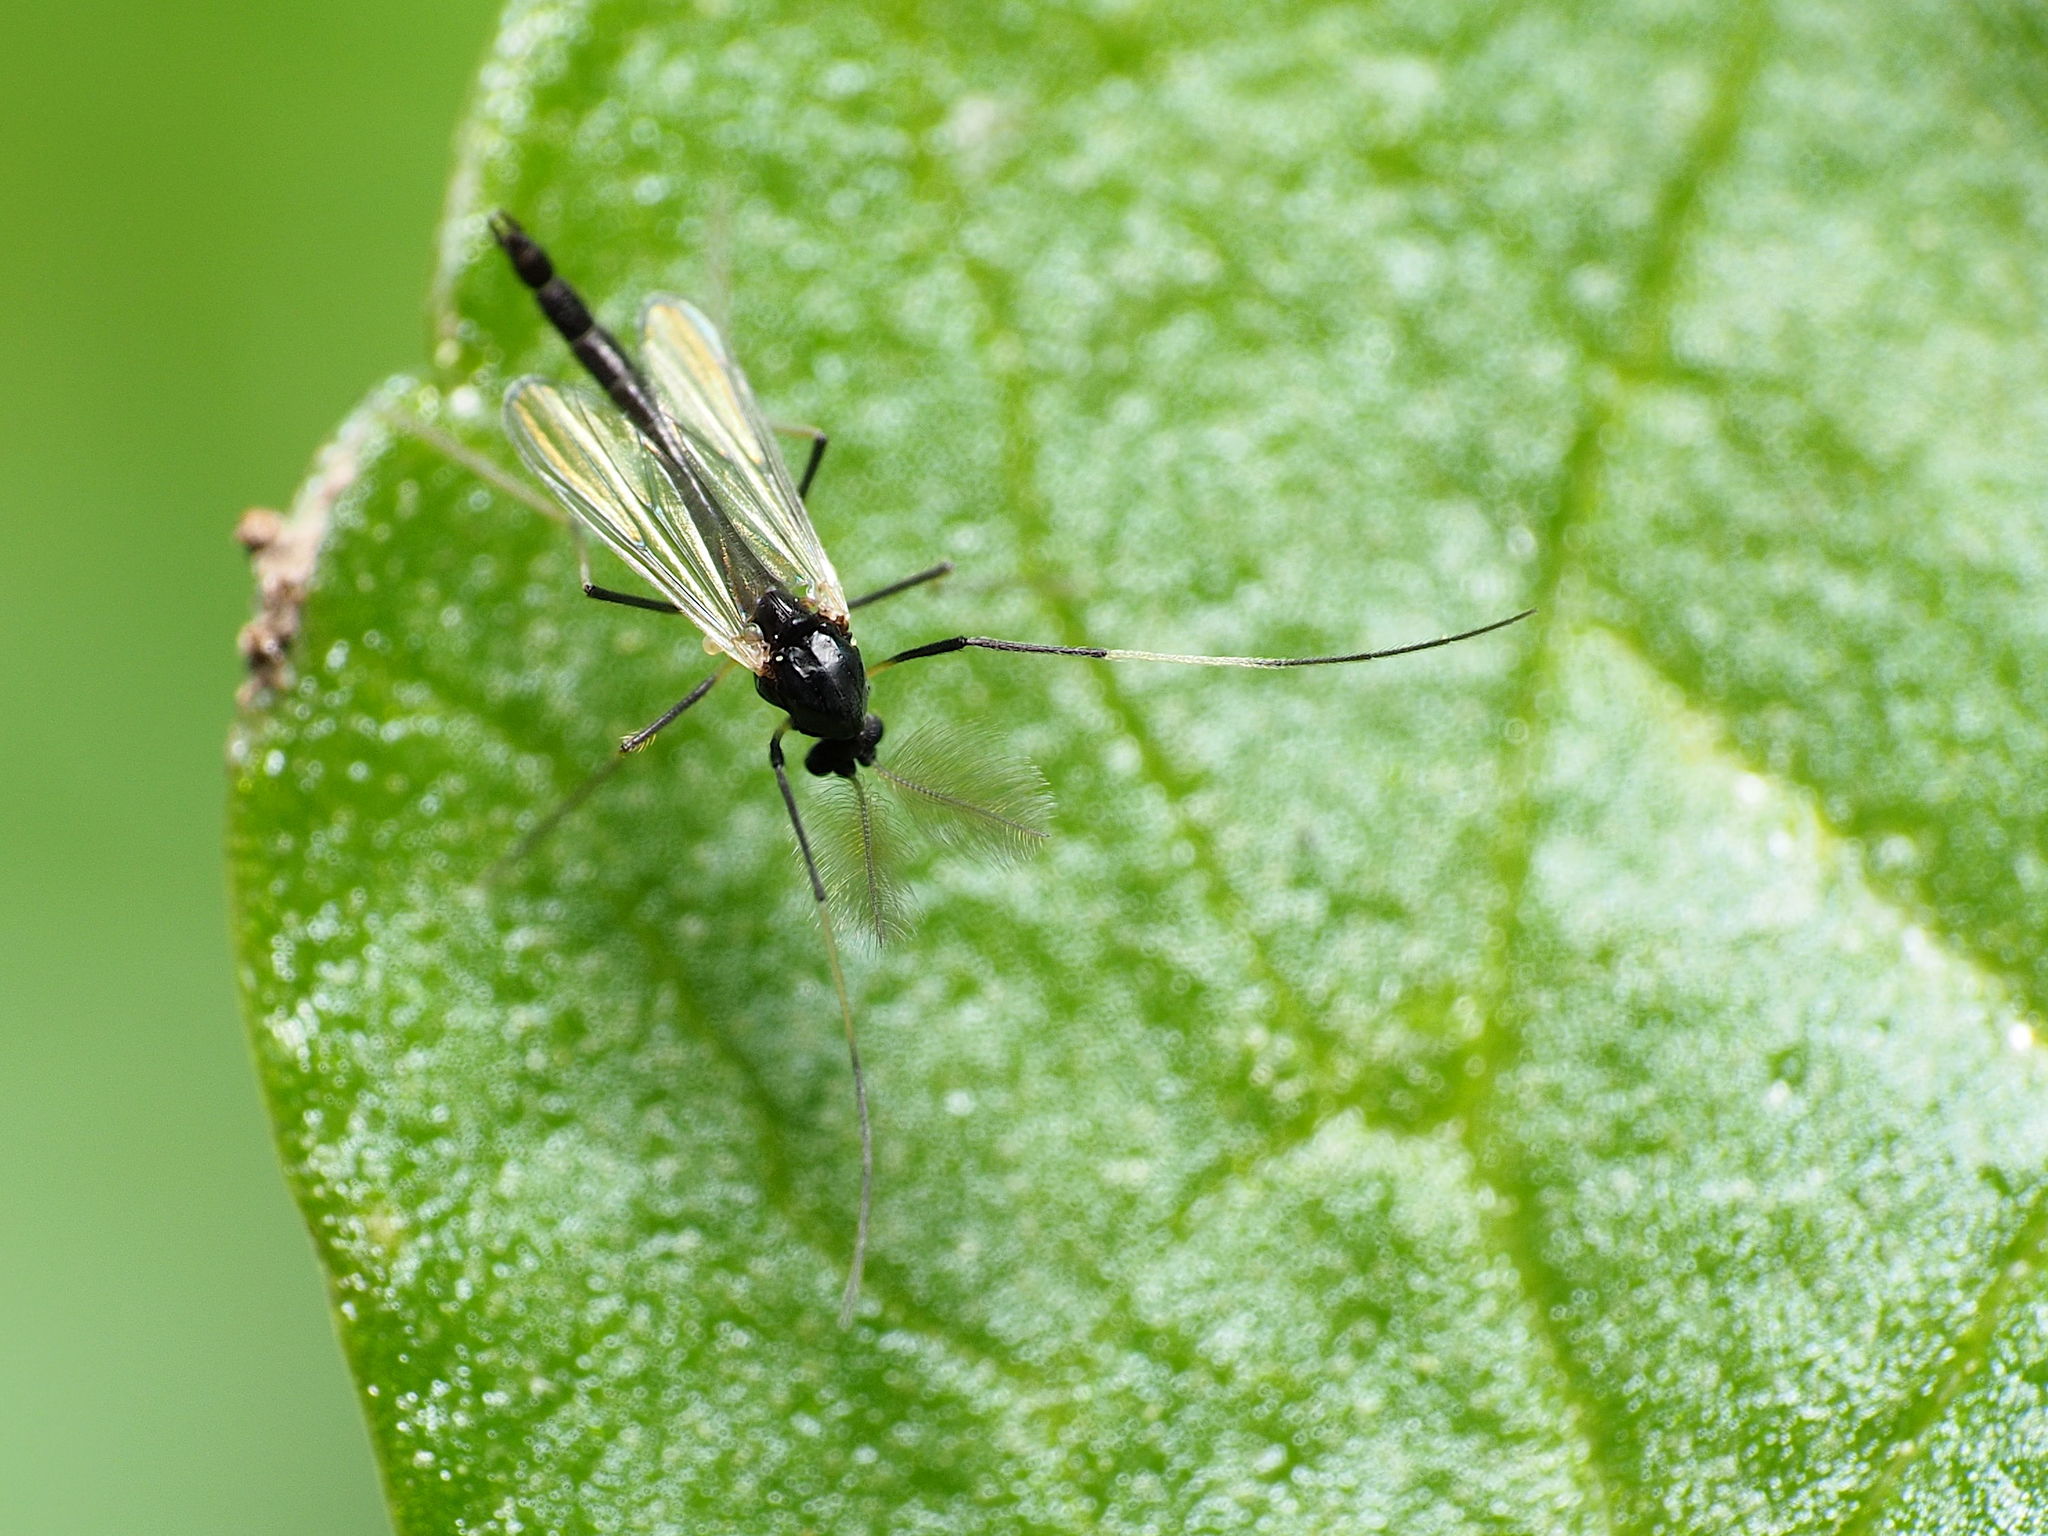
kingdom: Animalia
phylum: Arthropoda
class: Insecta
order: Diptera
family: Chironomidae
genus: Paratendipes
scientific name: Paratendipes albimanus
